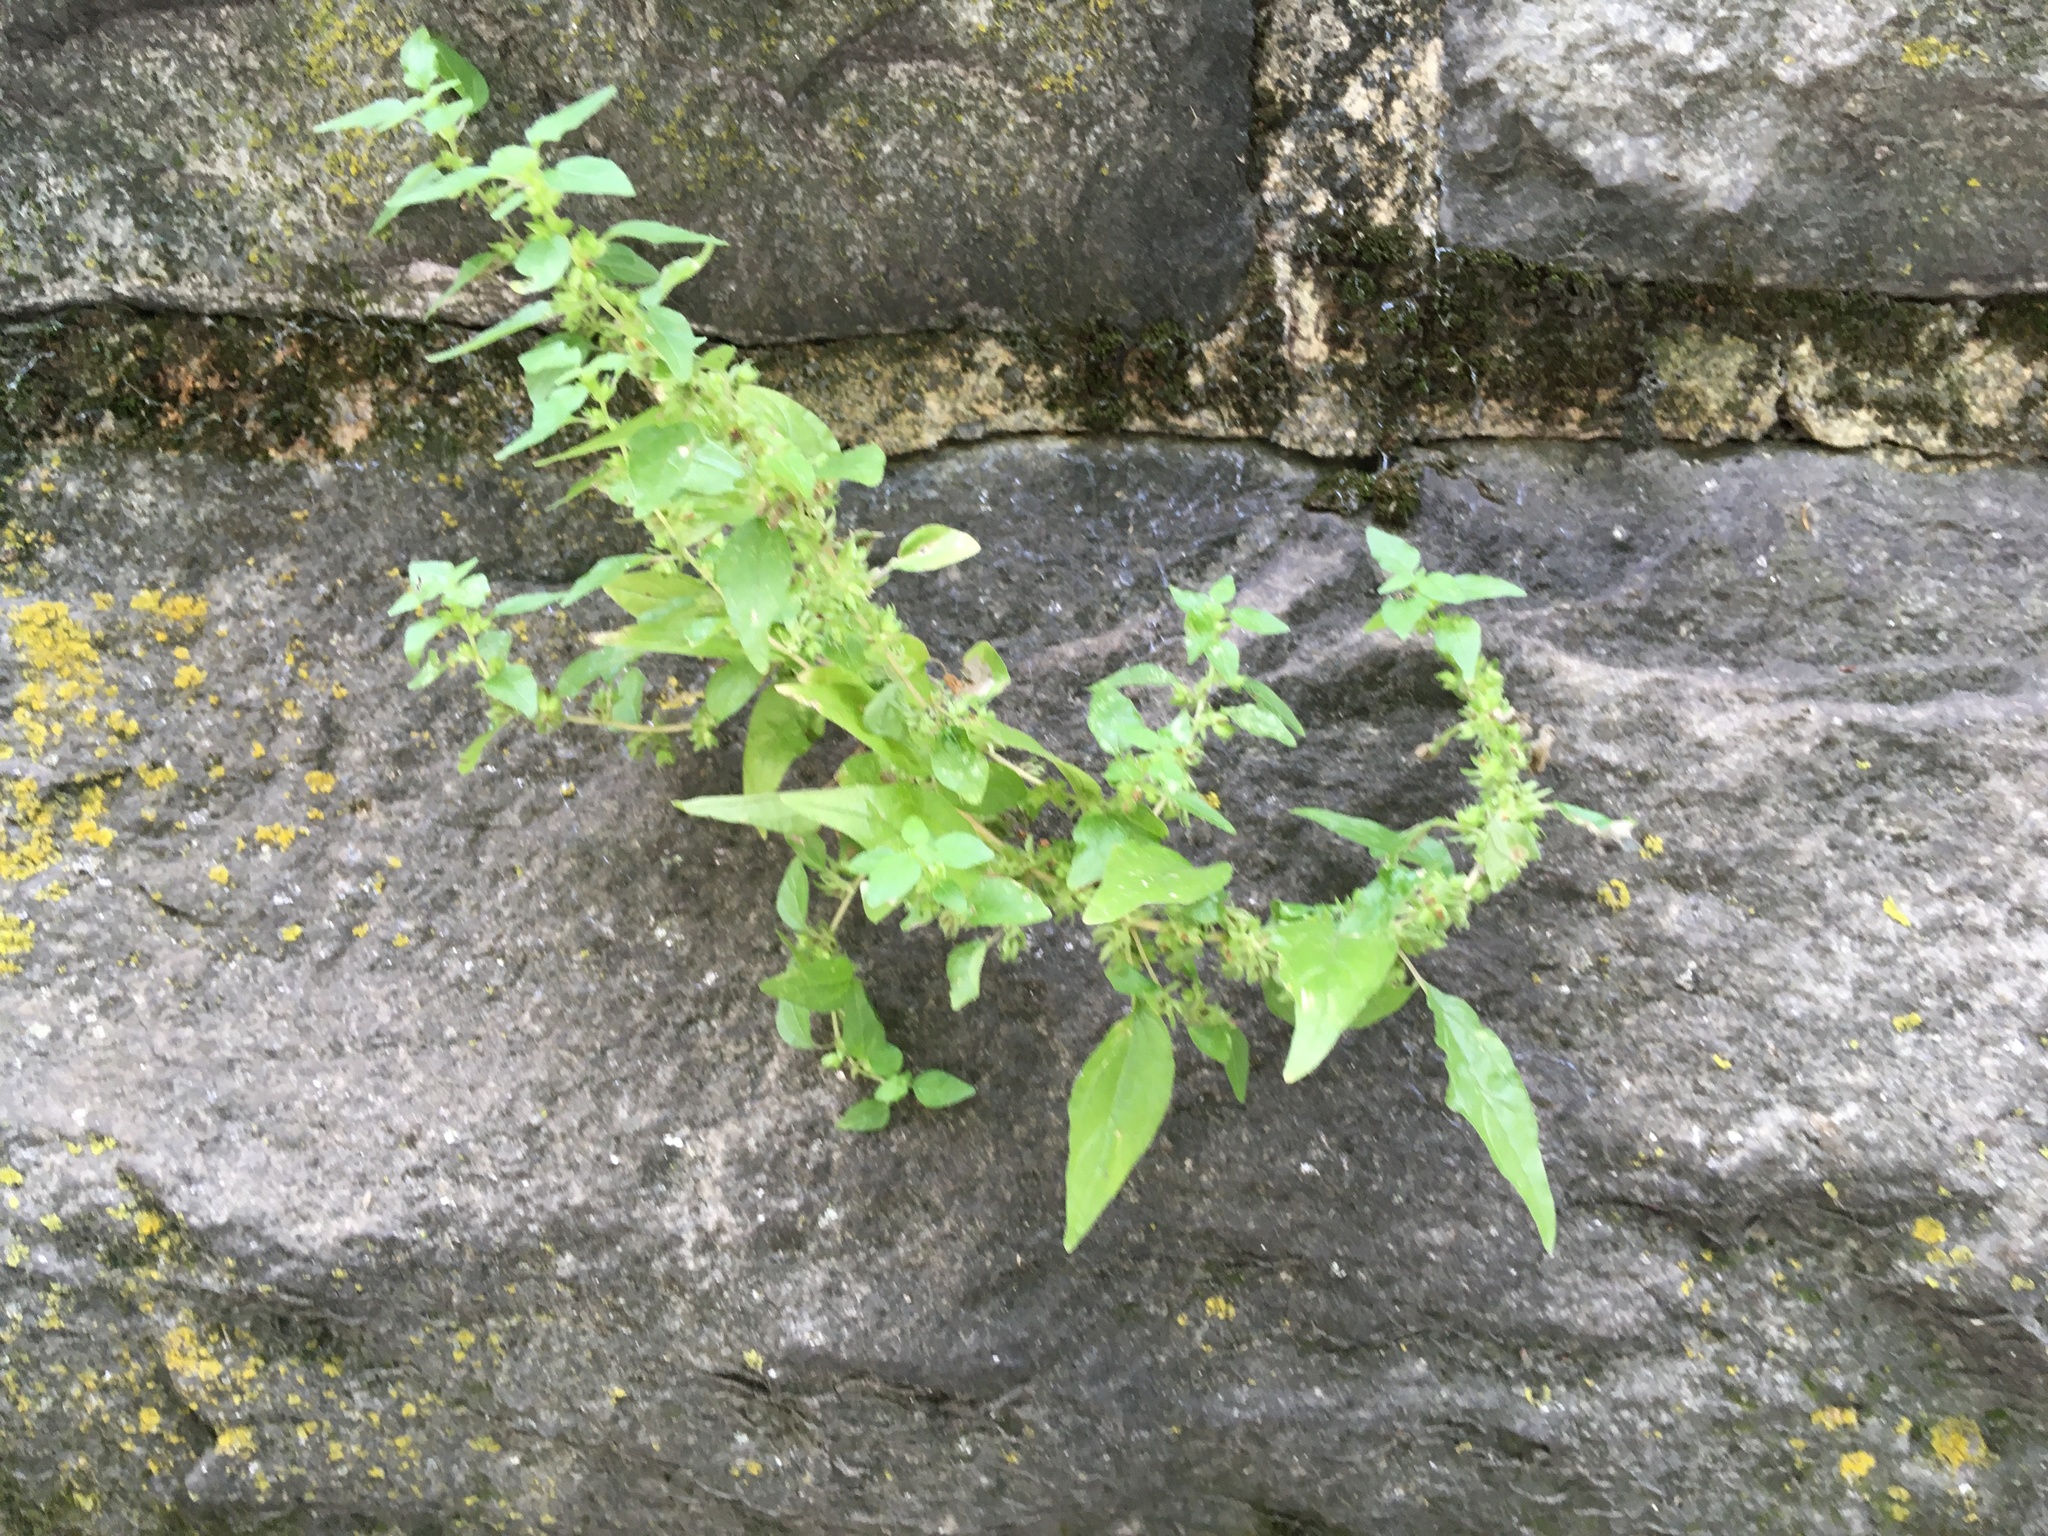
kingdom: Plantae
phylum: Tracheophyta
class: Magnoliopsida
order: Rosales
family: Urticaceae
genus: Parietaria
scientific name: Parietaria pensylvanica
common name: Pennsylvania pellitory
